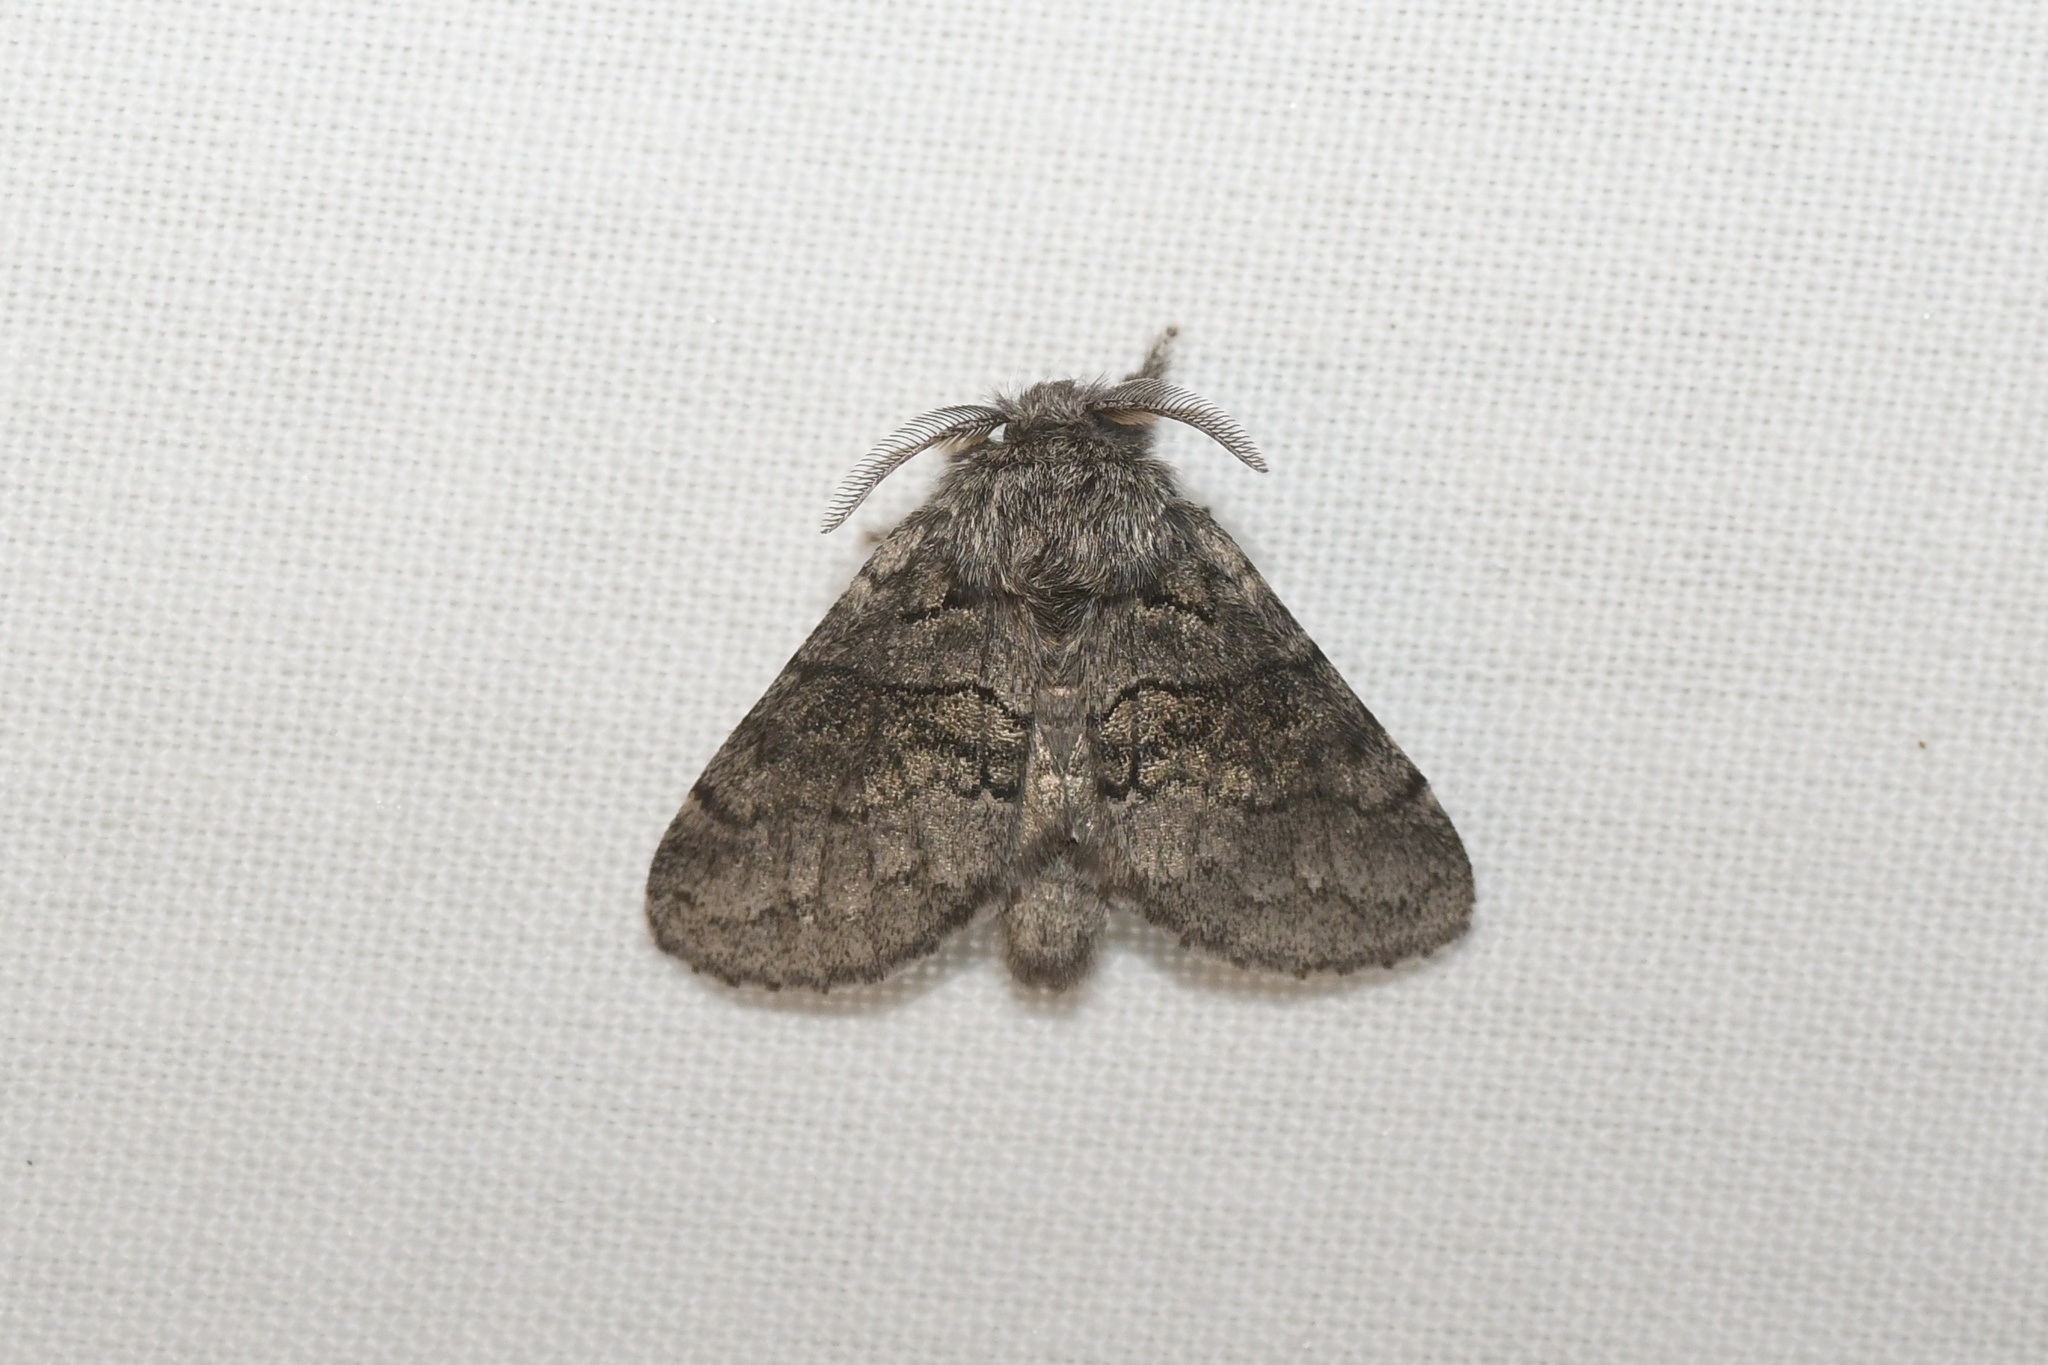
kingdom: Animalia
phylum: Arthropoda
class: Insecta
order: Lepidoptera
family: Notodontidae
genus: Gluphisia
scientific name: Gluphisia septentrionis
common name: Common gluphisia
